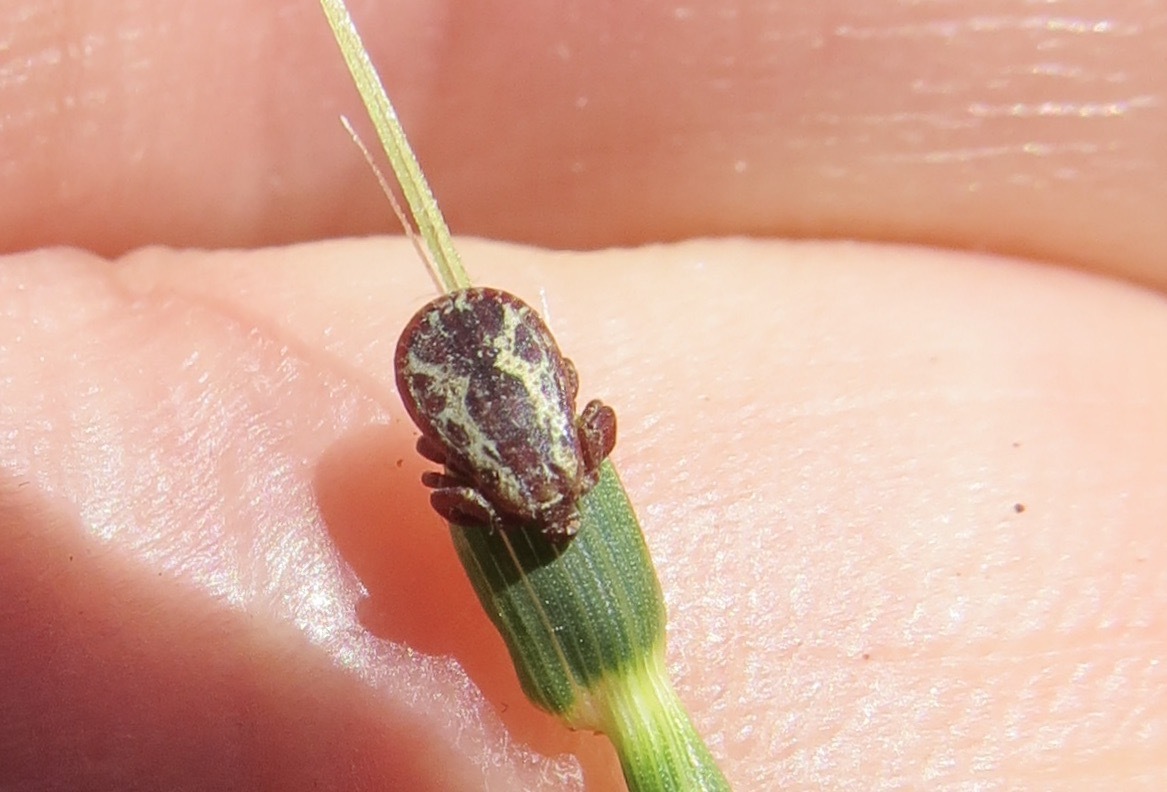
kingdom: Animalia
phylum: Arthropoda
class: Arachnida
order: Ixodida
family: Ixodidae
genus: Dermacentor
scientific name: Dermacentor variabilis
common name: American dog tick
